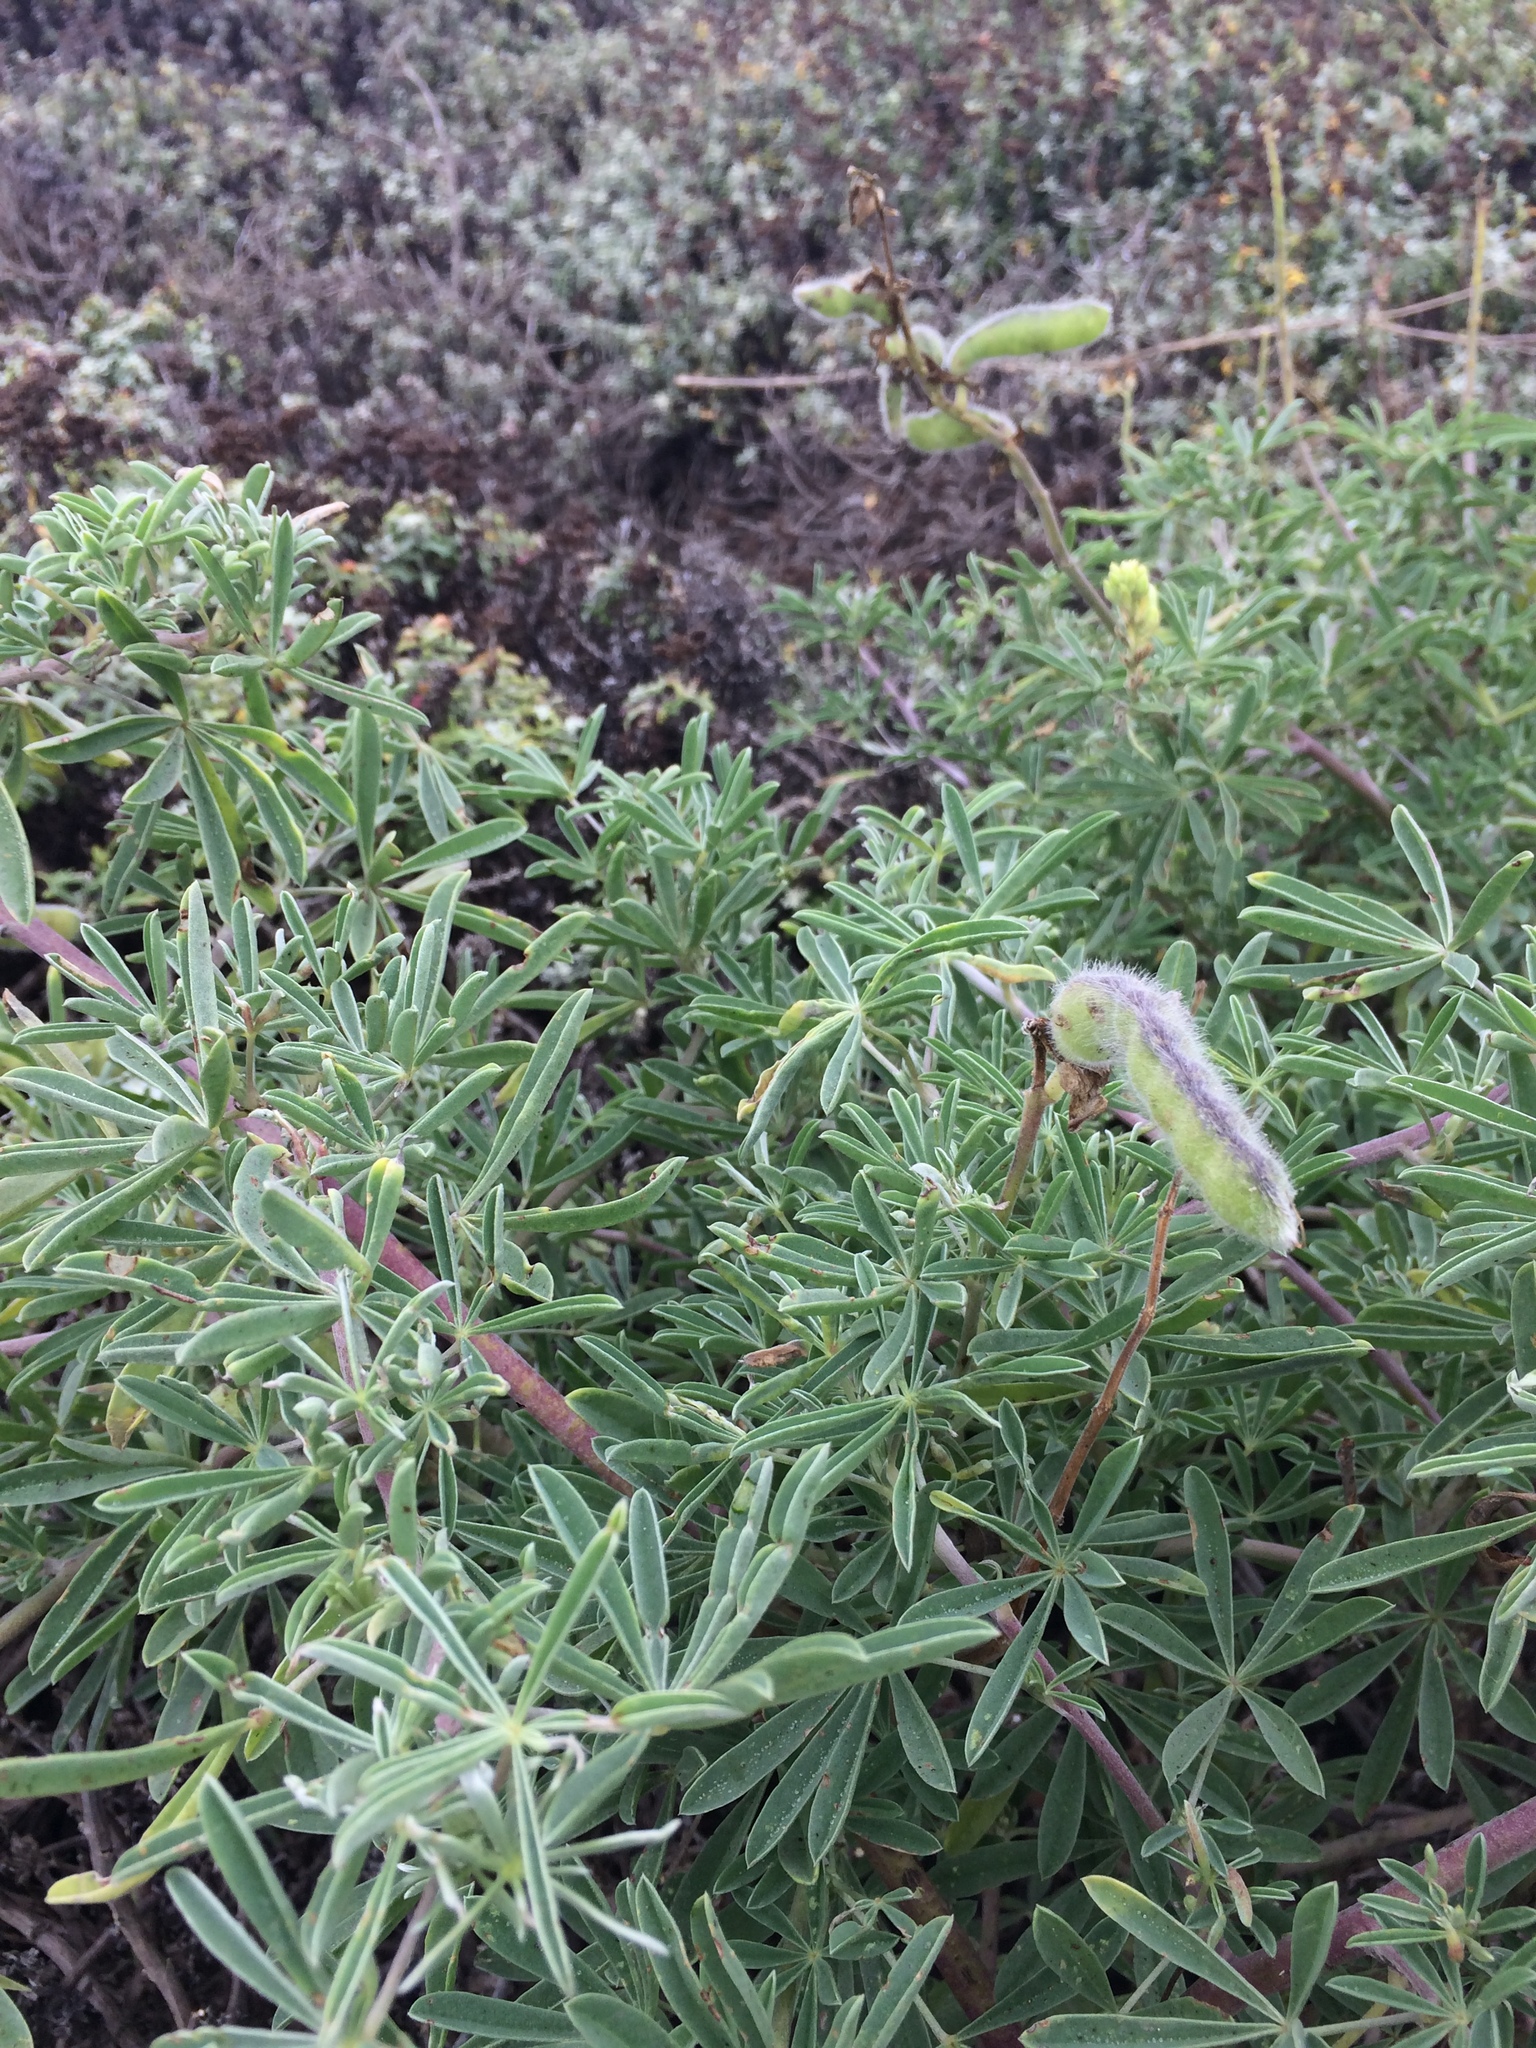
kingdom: Plantae
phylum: Tracheophyta
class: Magnoliopsida
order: Fabales
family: Fabaceae
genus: Lupinus
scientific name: Lupinus arboreus
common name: Yellow bush lupine
